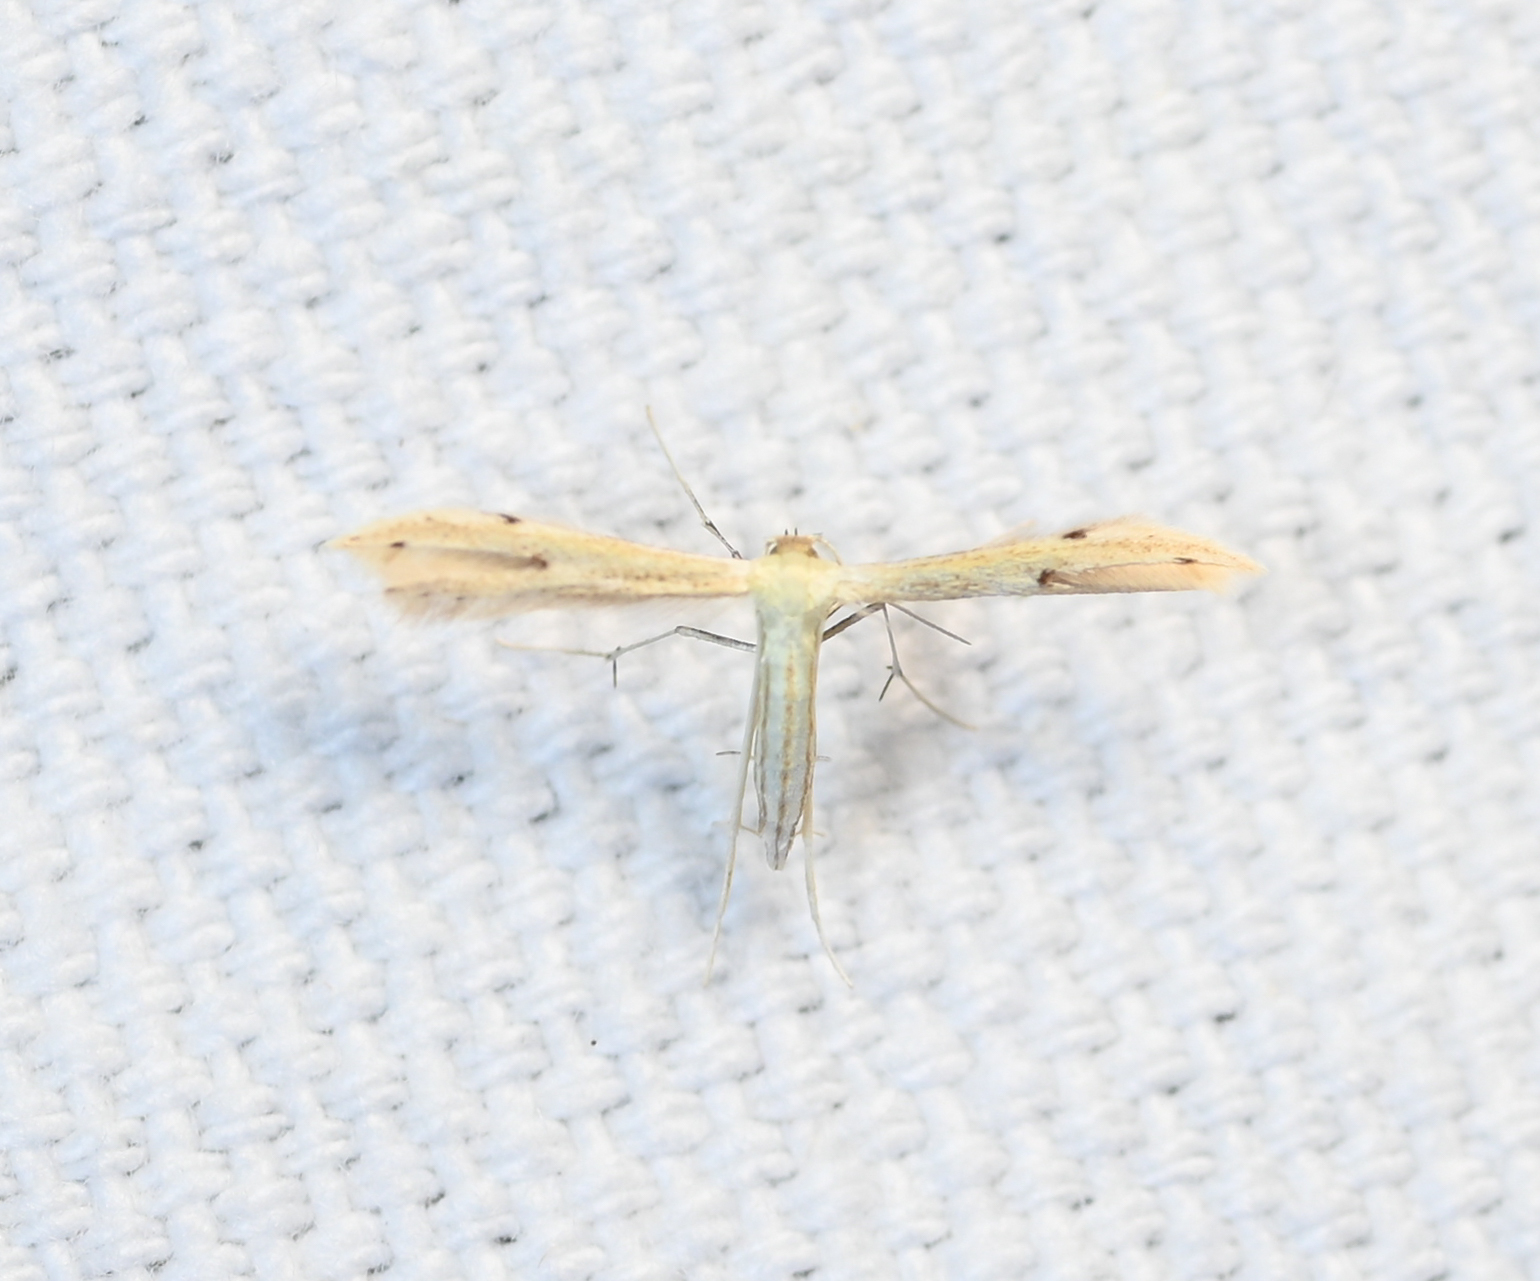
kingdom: Animalia
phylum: Arthropoda
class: Insecta
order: Lepidoptera
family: Pterophoridae
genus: Adaina
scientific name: Adaina
